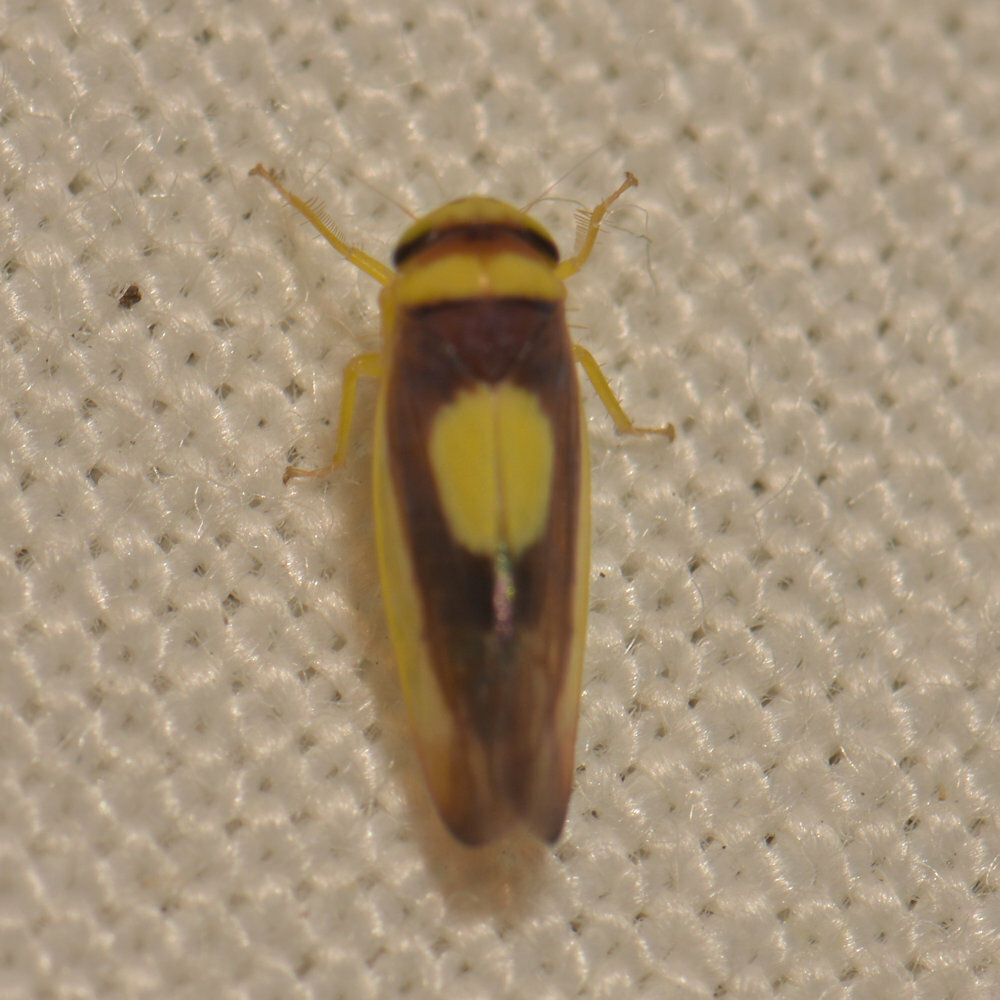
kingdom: Animalia
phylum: Arthropoda
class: Insecta
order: Hemiptera
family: Cicadellidae
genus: Colladonus
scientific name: Colladonus clitellarius
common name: The saddleback leafhopper
